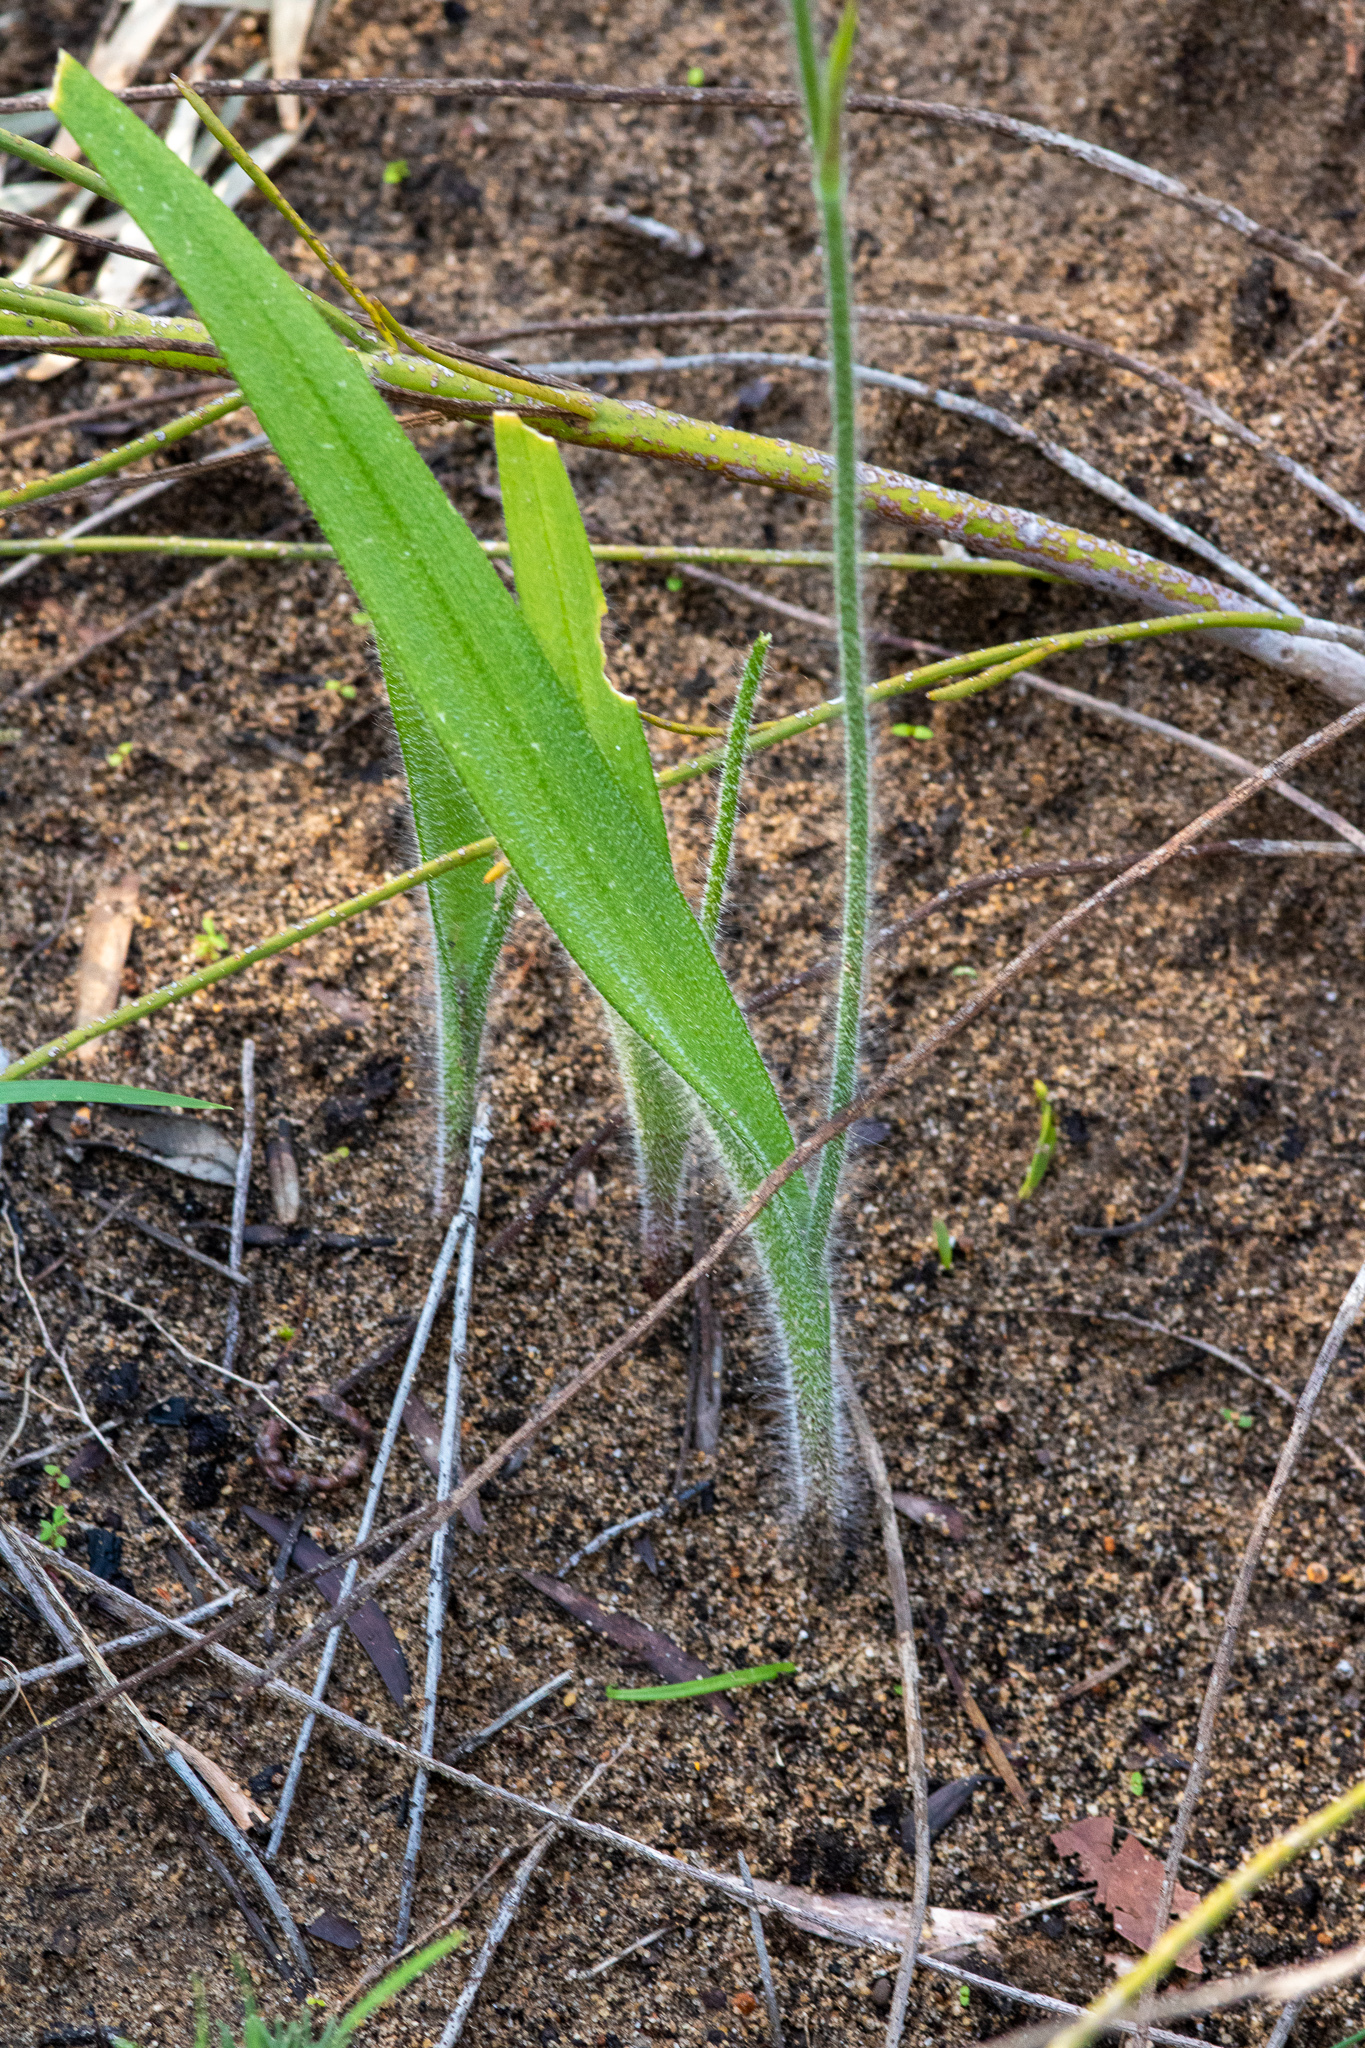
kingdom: Plantae
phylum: Tracheophyta
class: Liliopsida
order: Asparagales
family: Orchidaceae
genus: Caladenia
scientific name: Caladenia thinicola
